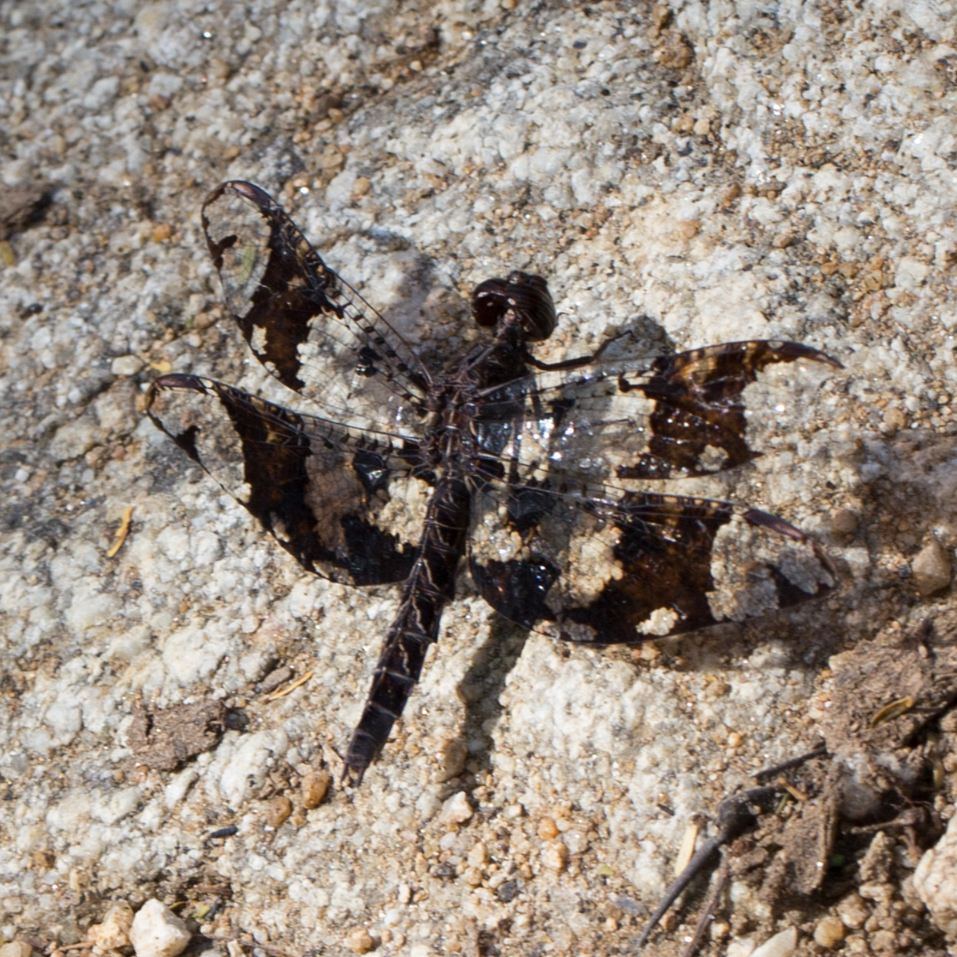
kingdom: Animalia
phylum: Arthropoda
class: Insecta
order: Odonata
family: Libellulidae
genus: Pseudoleon
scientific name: Pseudoleon superbus
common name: Filigree skimmer
